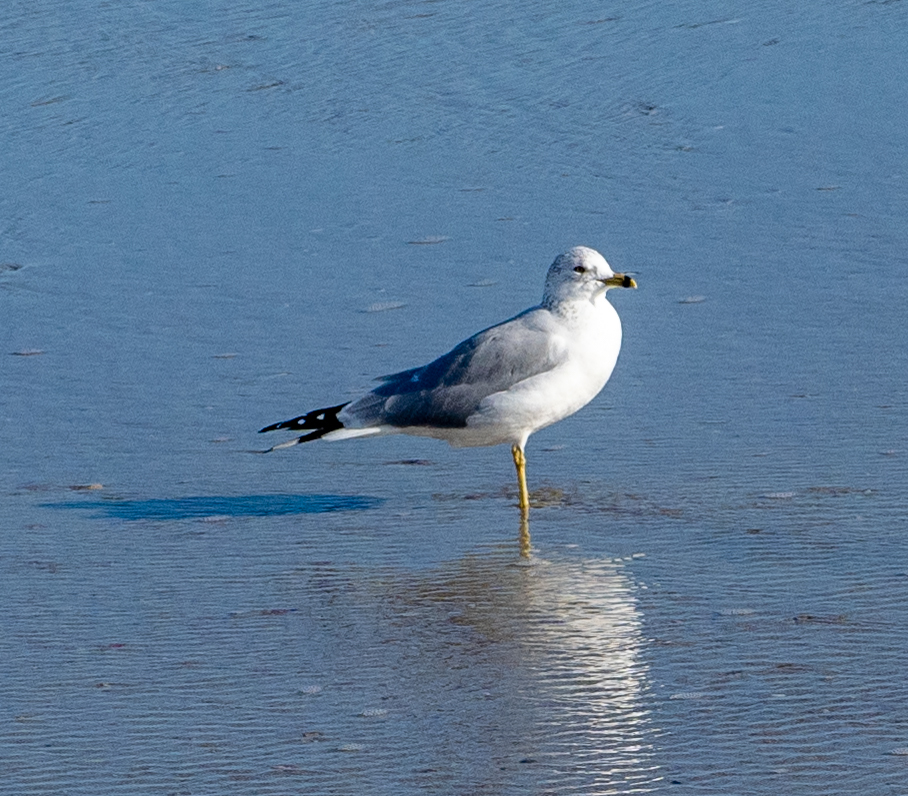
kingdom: Animalia
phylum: Chordata
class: Aves
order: Charadriiformes
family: Laridae
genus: Larus
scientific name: Larus delawarensis
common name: Ring-billed gull
